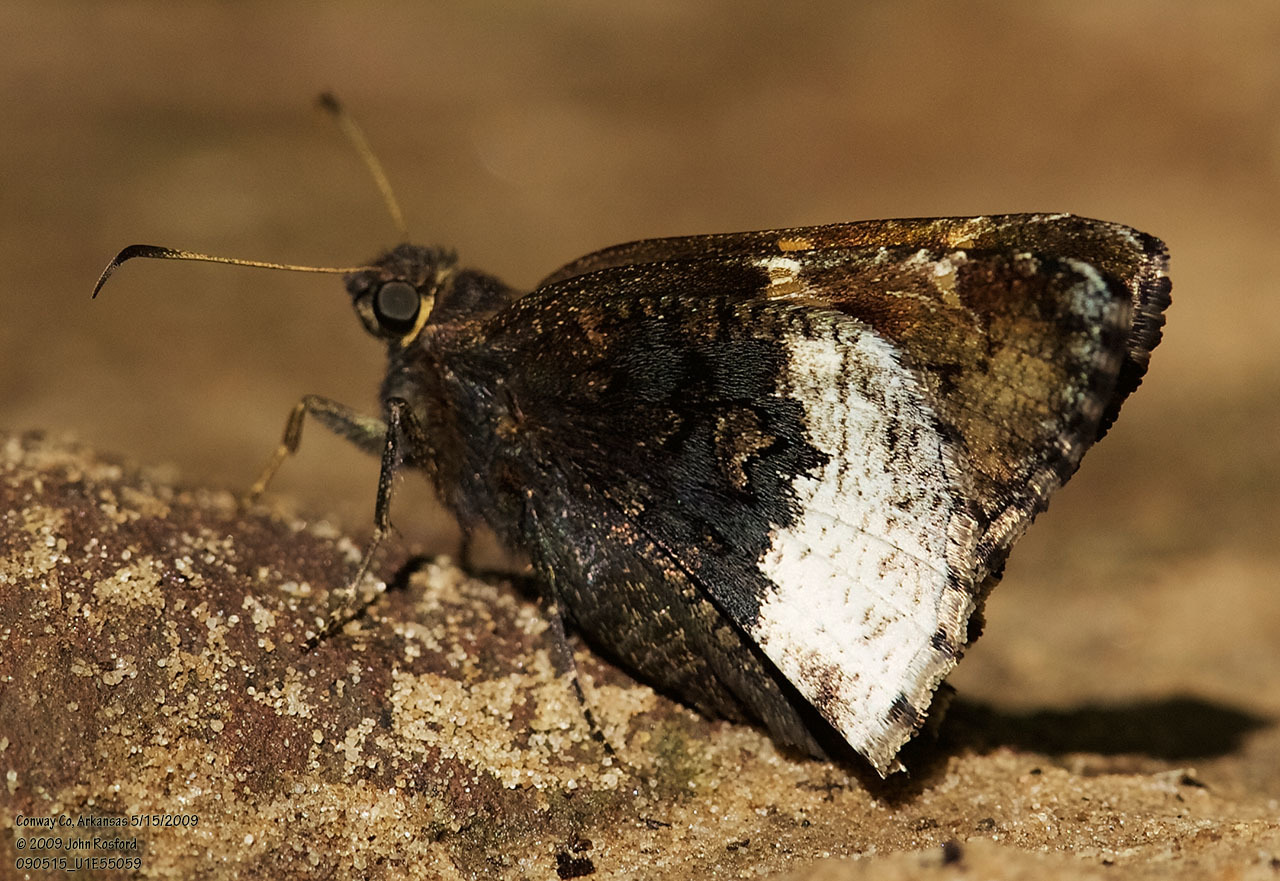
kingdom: Animalia
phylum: Arthropoda
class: Insecta
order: Lepidoptera
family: Hesperiidae
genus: Thorybes
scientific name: Thorybes lyciades
